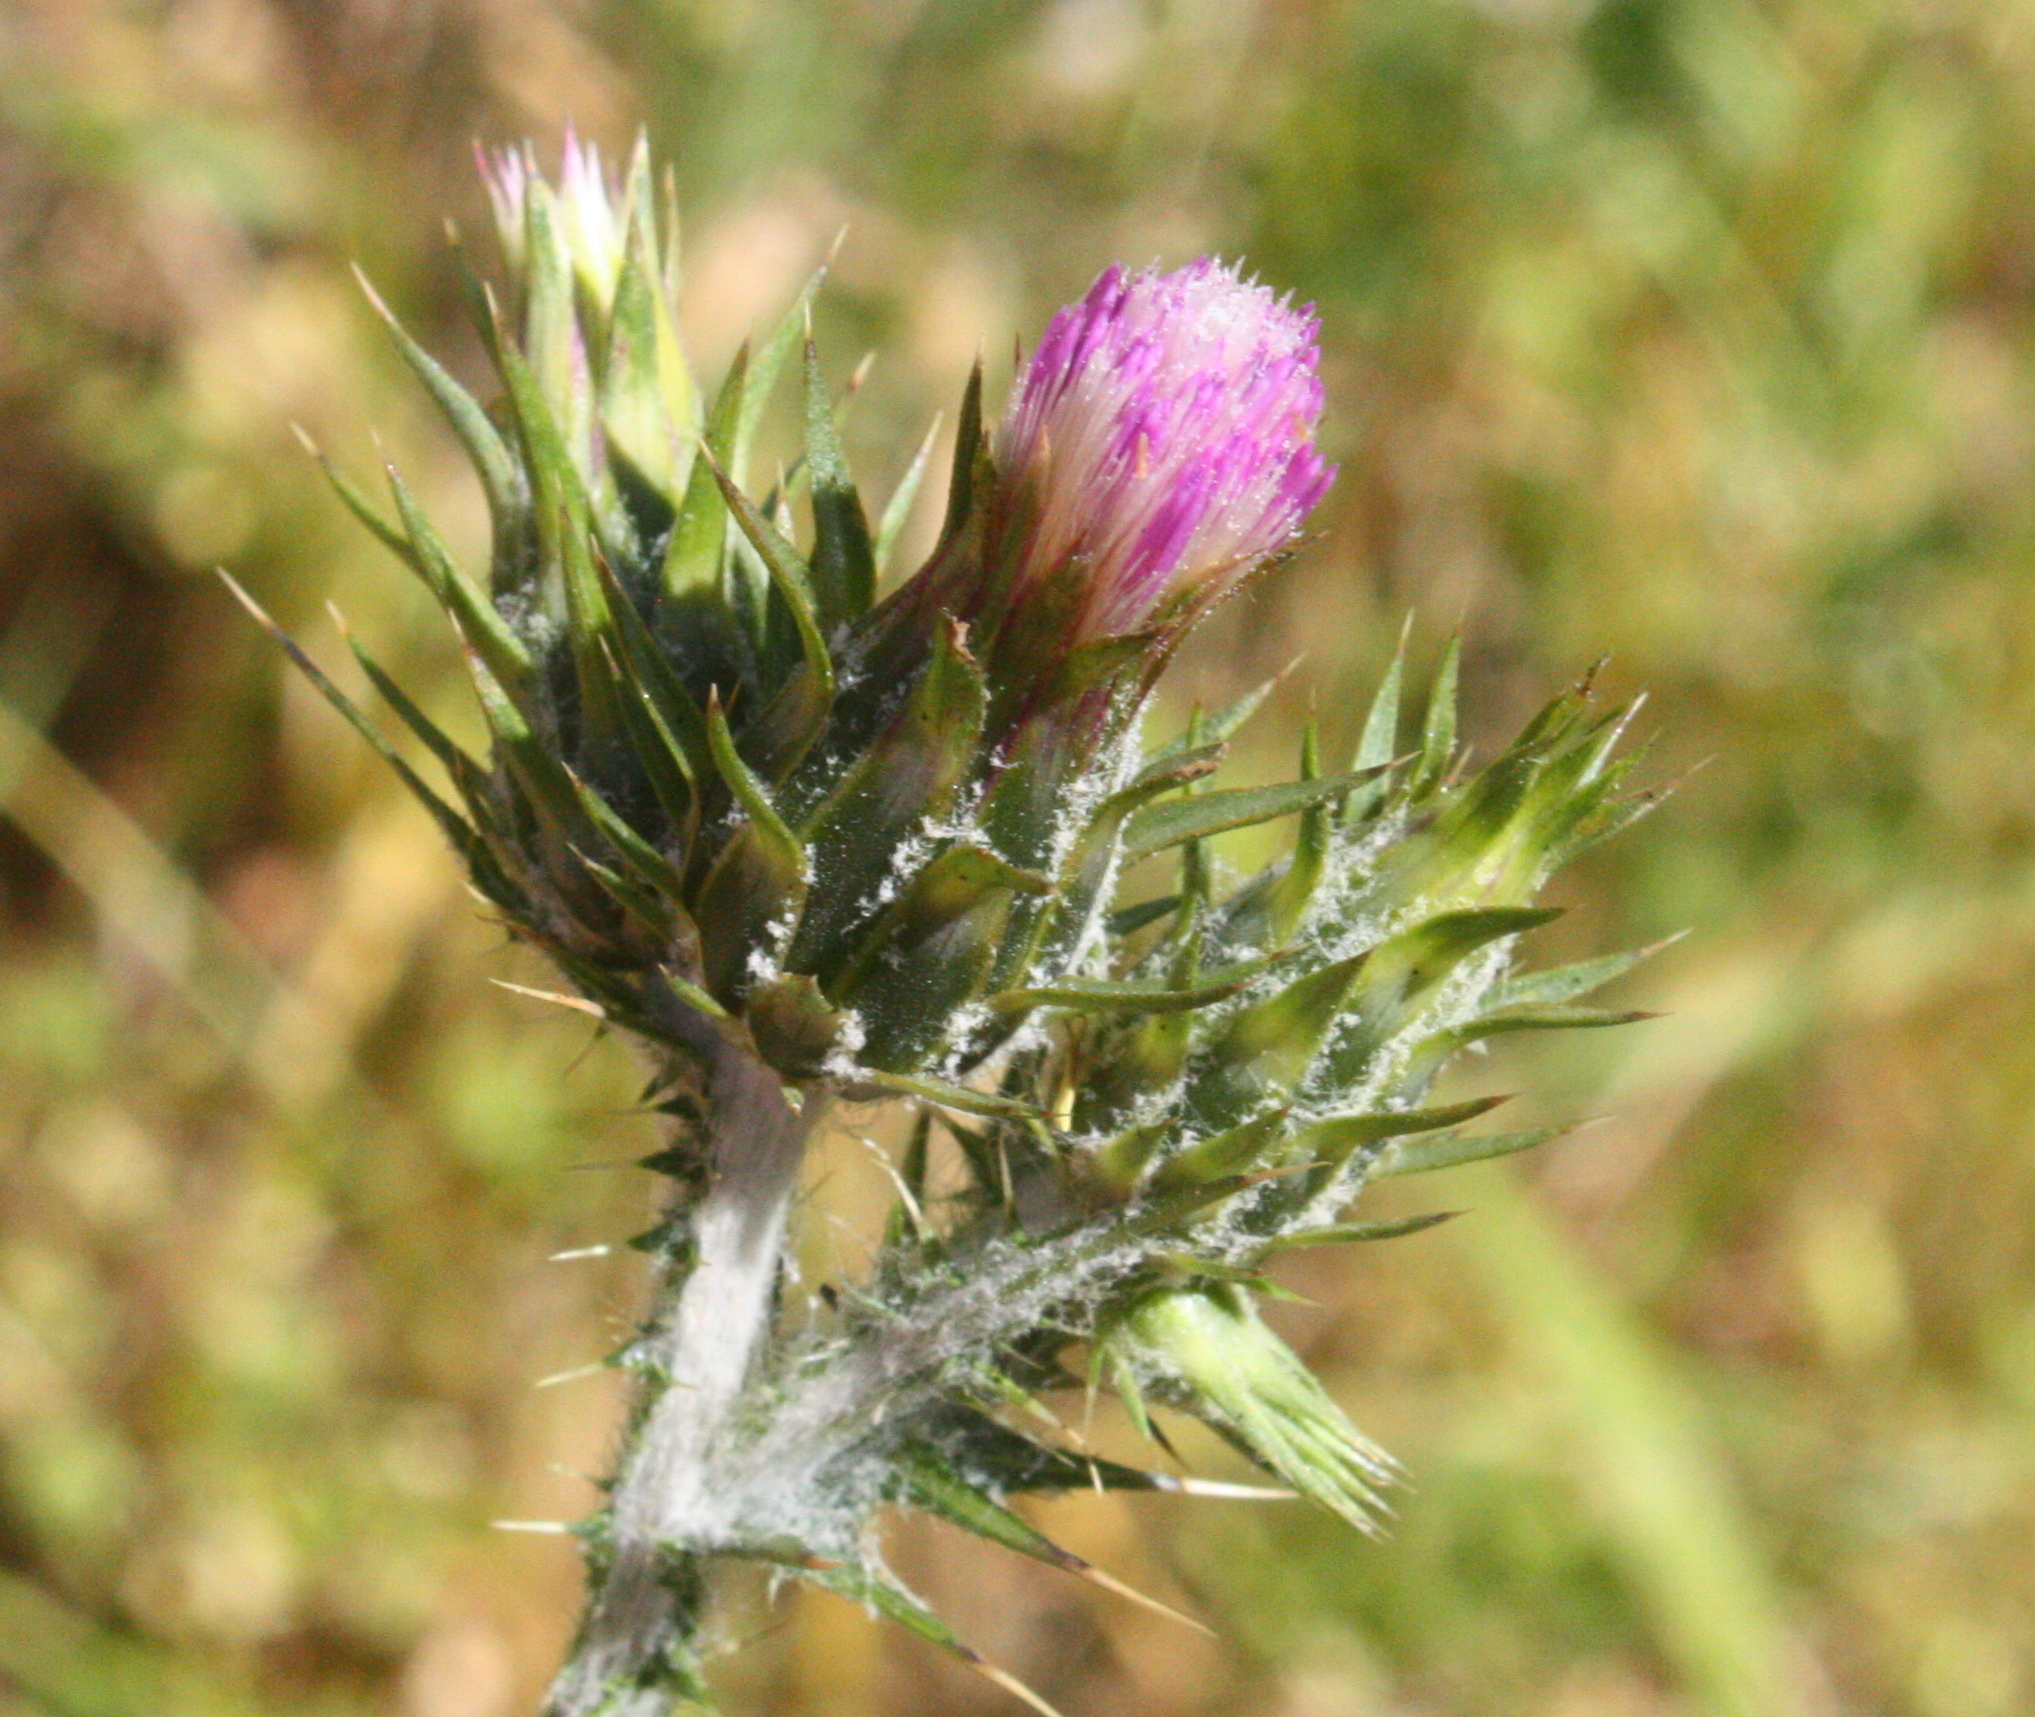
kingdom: Plantae
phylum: Tracheophyta
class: Magnoliopsida
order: Asterales
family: Asteraceae
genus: Carduus
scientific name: Carduus pycnocephalus
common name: Plymouth thistle
